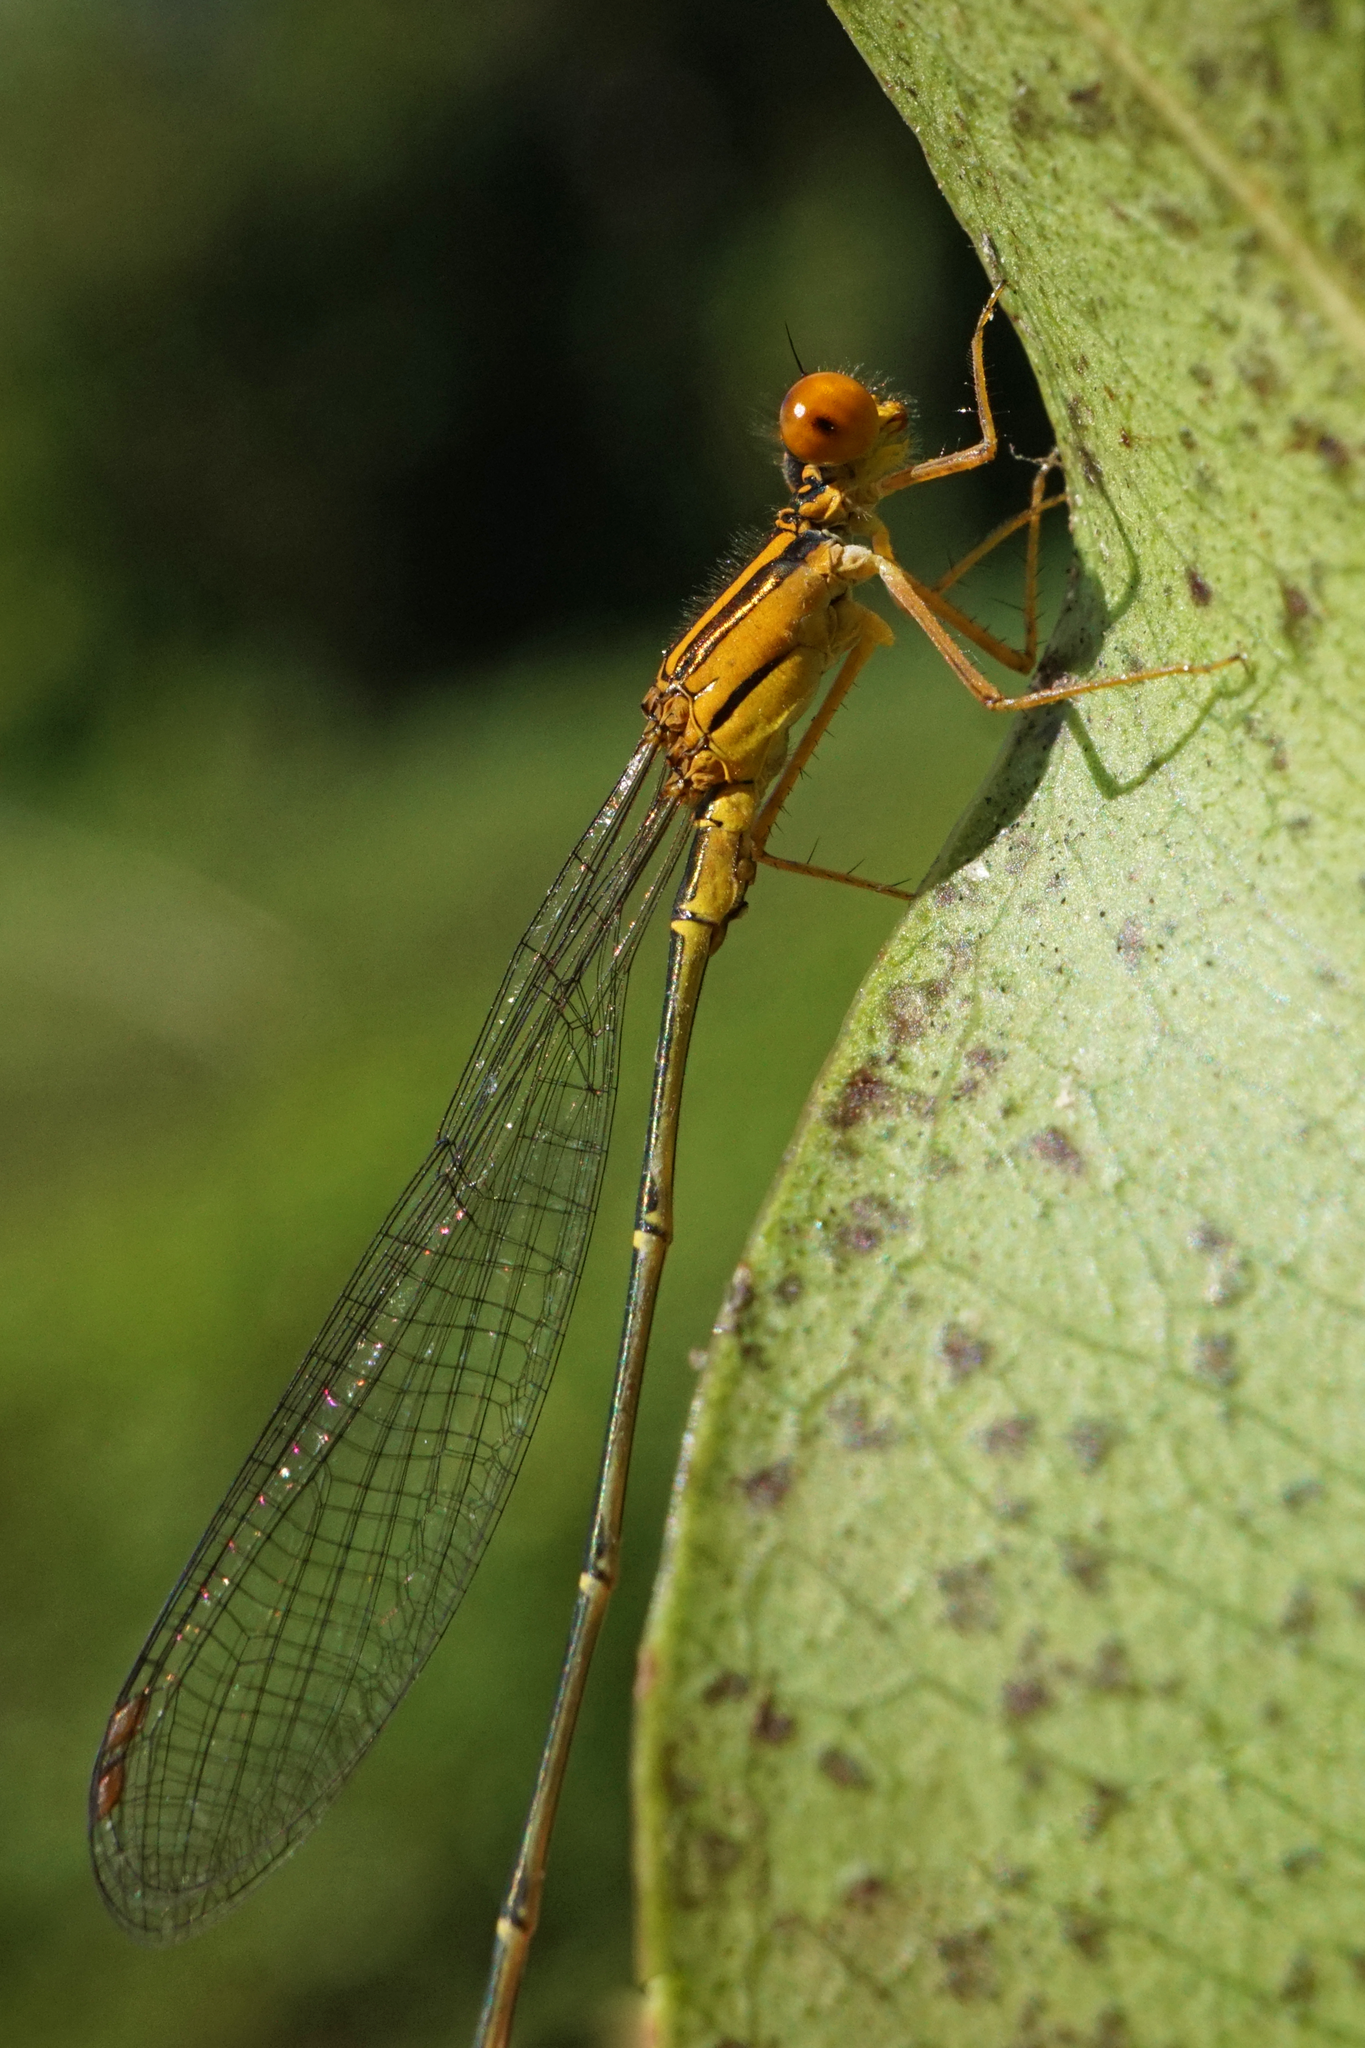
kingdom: Animalia
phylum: Arthropoda
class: Insecta
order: Odonata
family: Coenagrionidae
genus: Enallagma
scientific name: Enallagma pollutum
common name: Florida bluet
